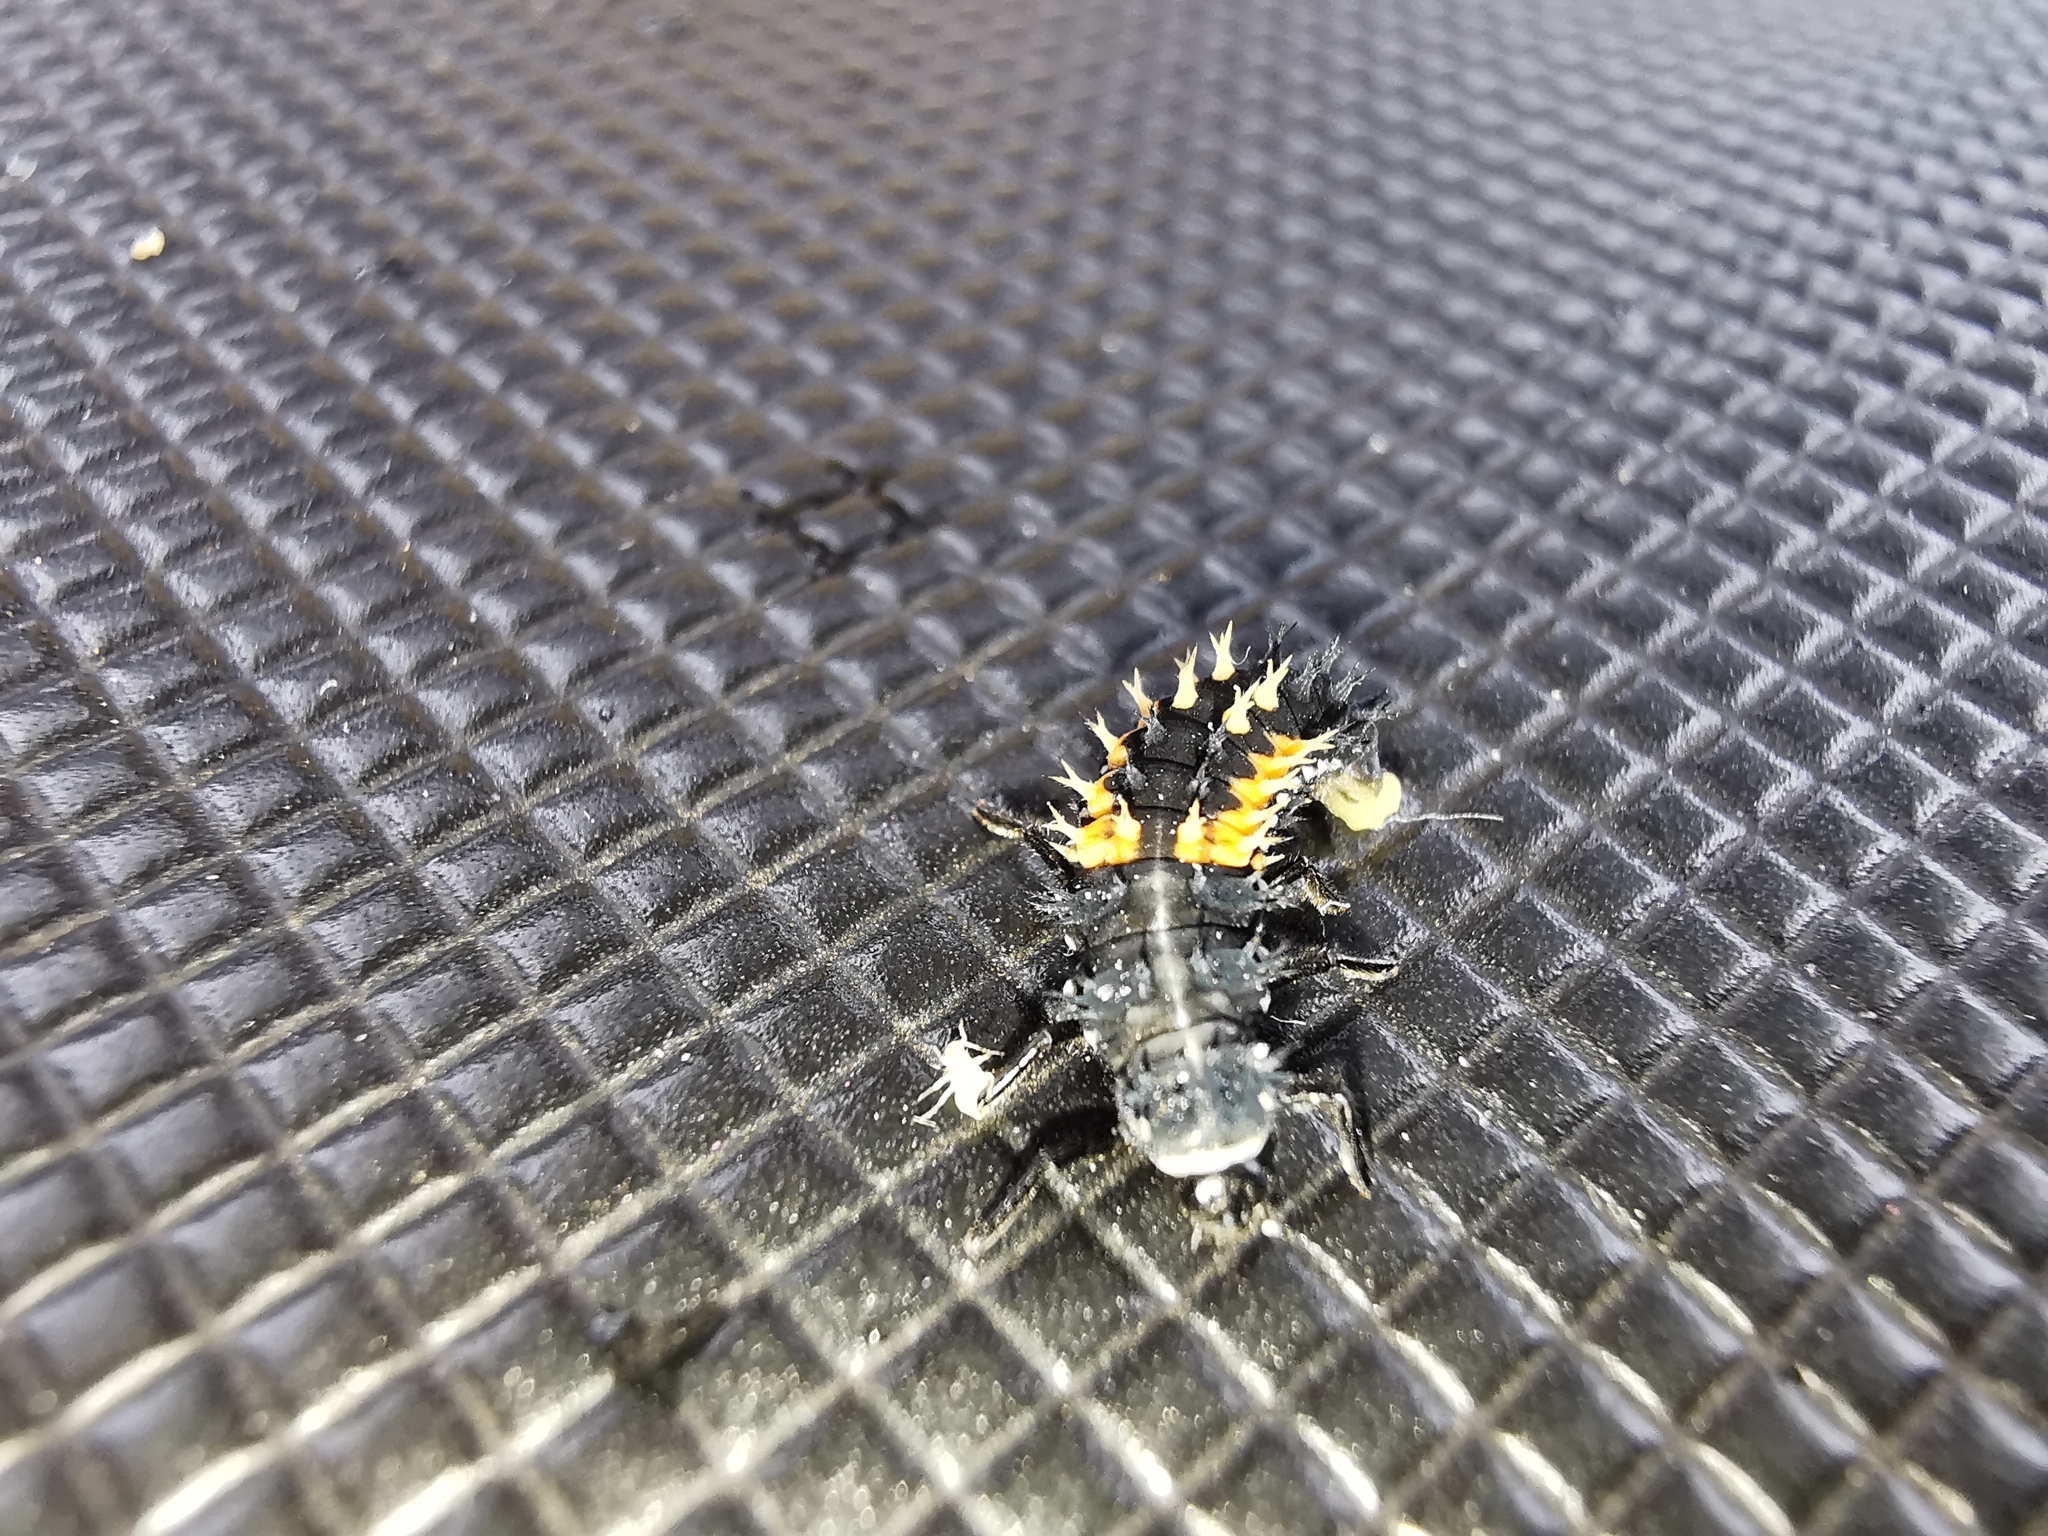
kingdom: Animalia
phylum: Arthropoda
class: Insecta
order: Coleoptera
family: Coccinellidae
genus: Harmonia
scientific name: Harmonia axyridis
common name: Harlequin ladybird
